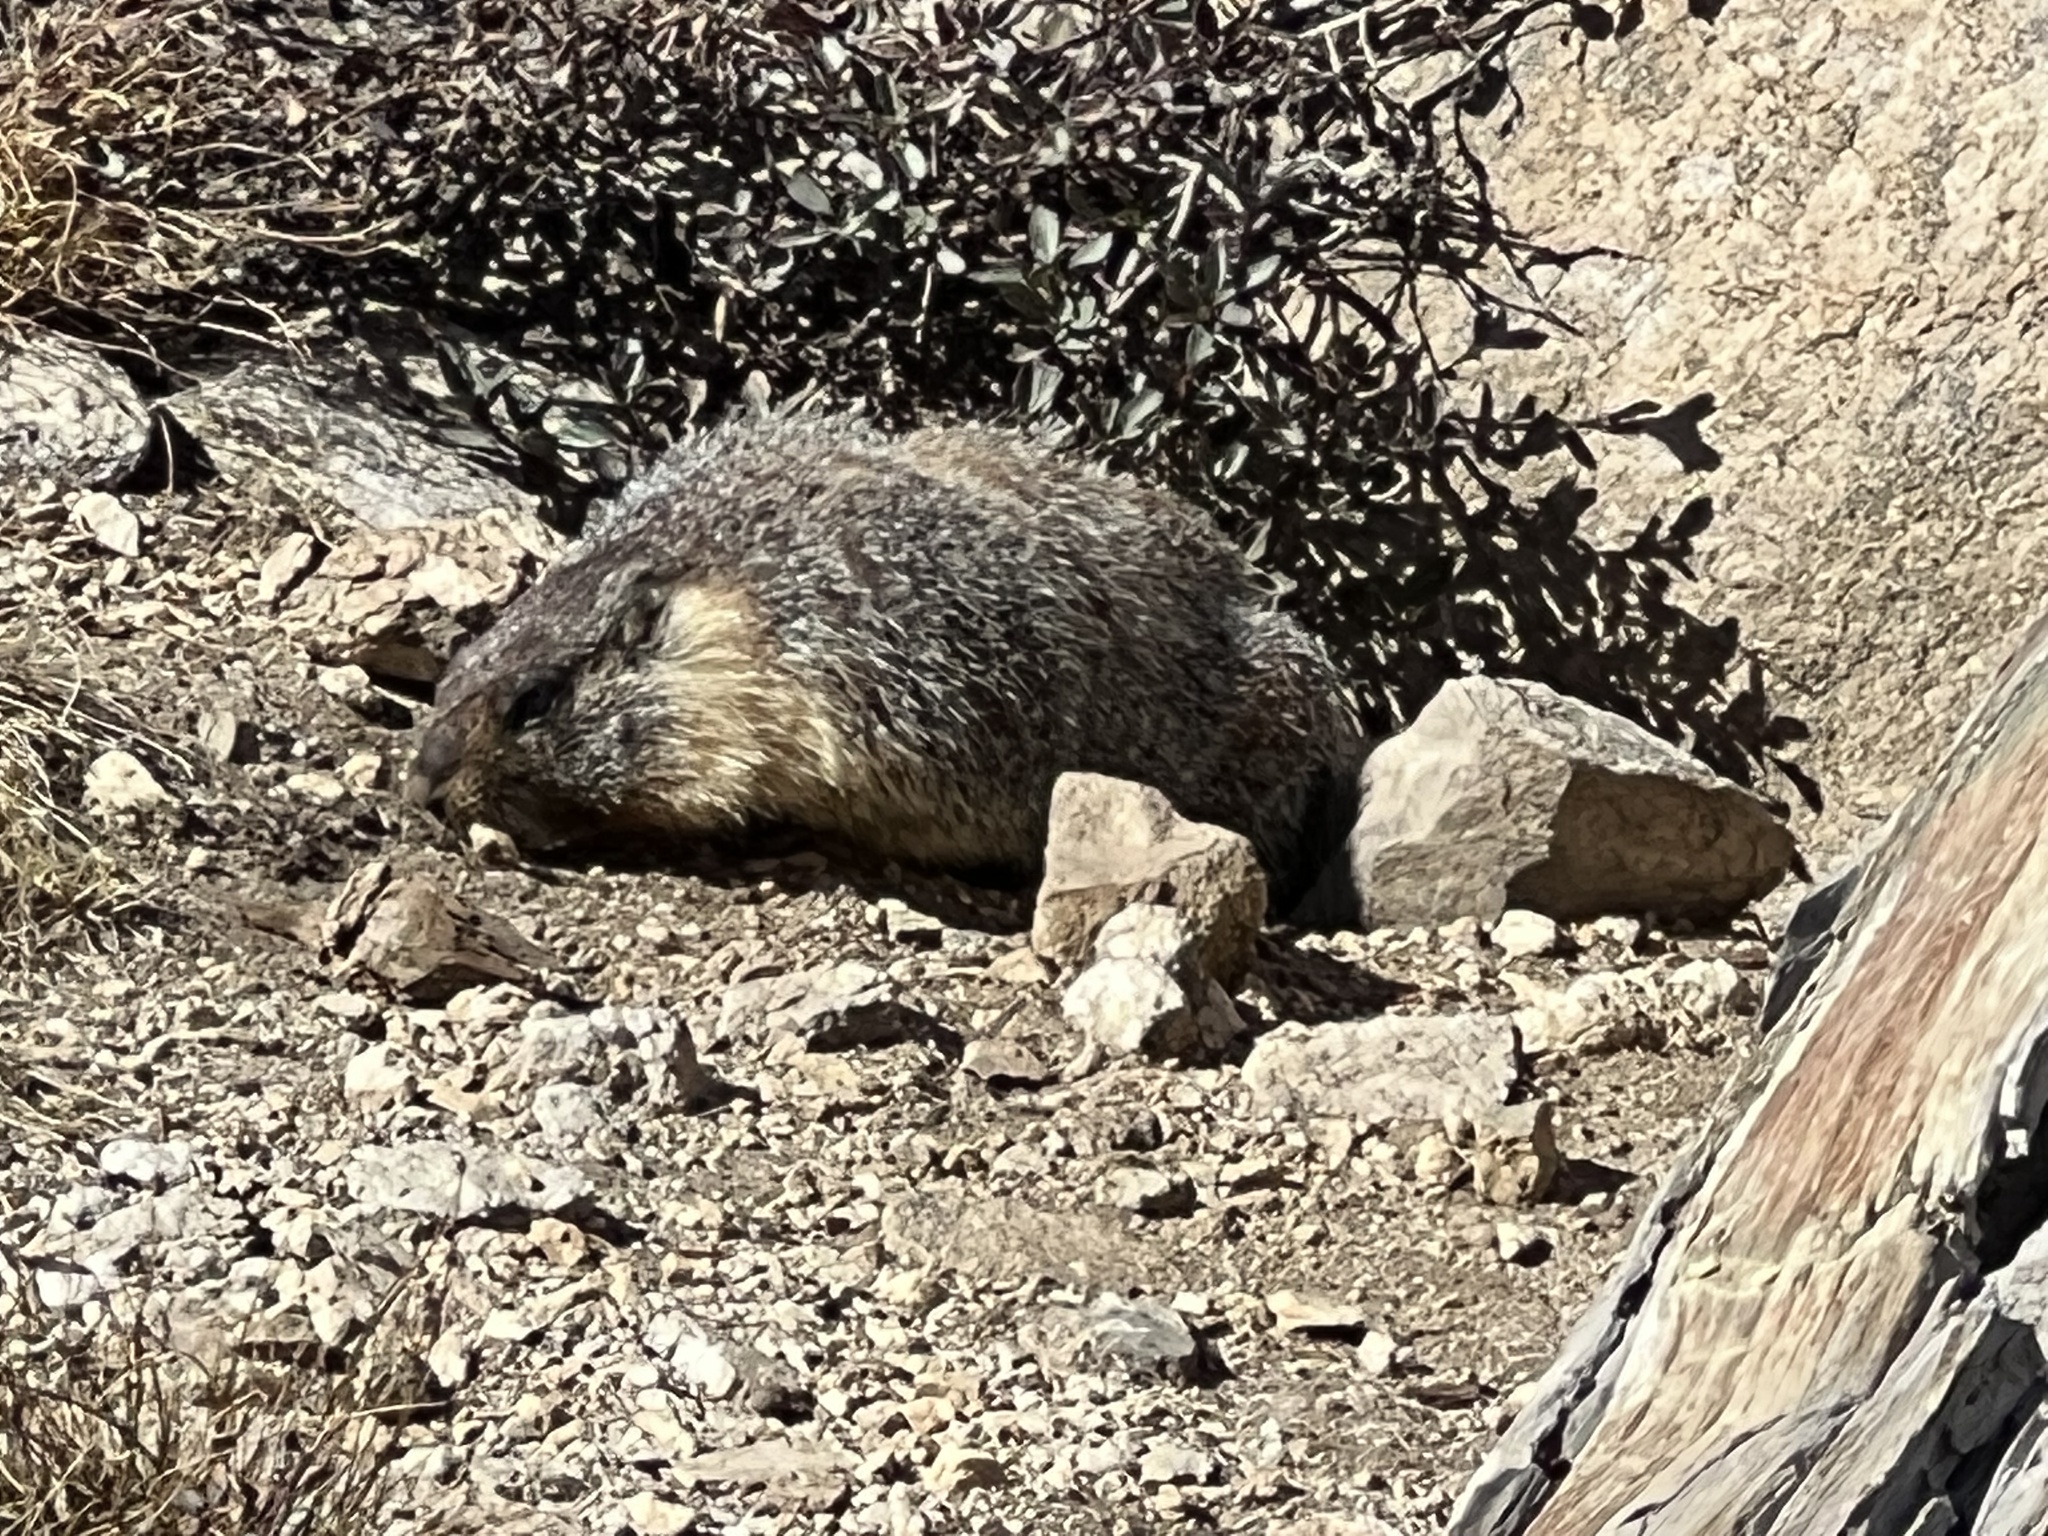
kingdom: Animalia
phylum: Chordata
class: Mammalia
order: Rodentia
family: Sciuridae
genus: Marmota
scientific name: Marmota flaviventris
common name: Yellow-bellied marmot
